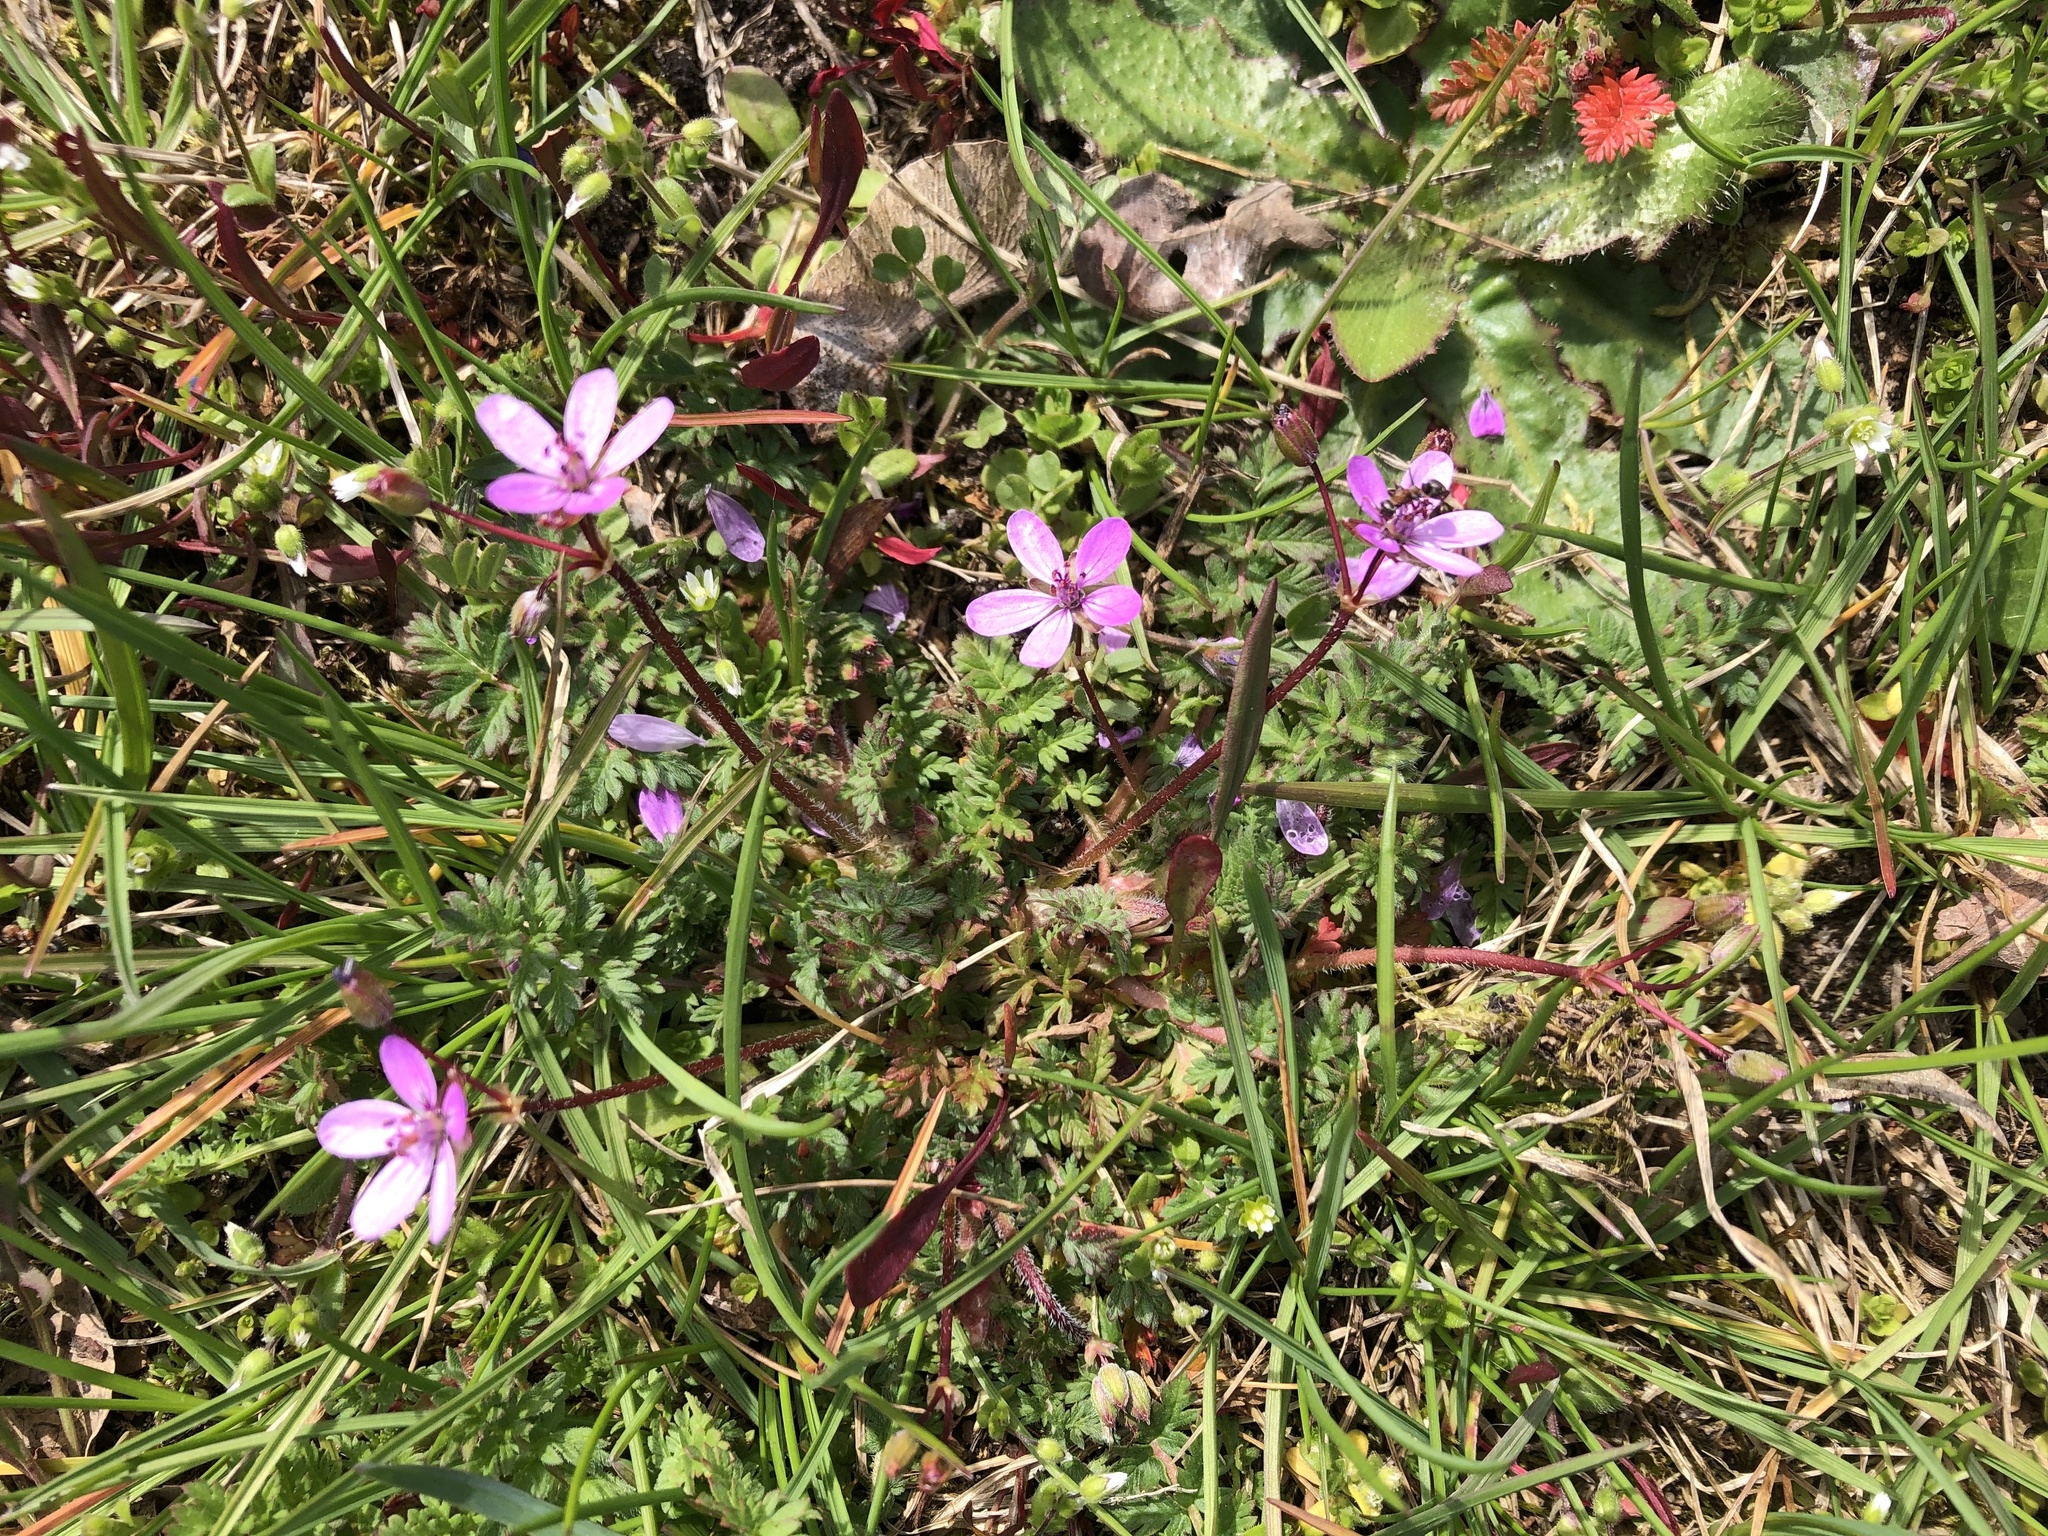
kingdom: Plantae
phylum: Tracheophyta
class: Magnoliopsida
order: Geraniales
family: Geraniaceae
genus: Erodium
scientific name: Erodium cicutarium
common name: Common stork's-bill
